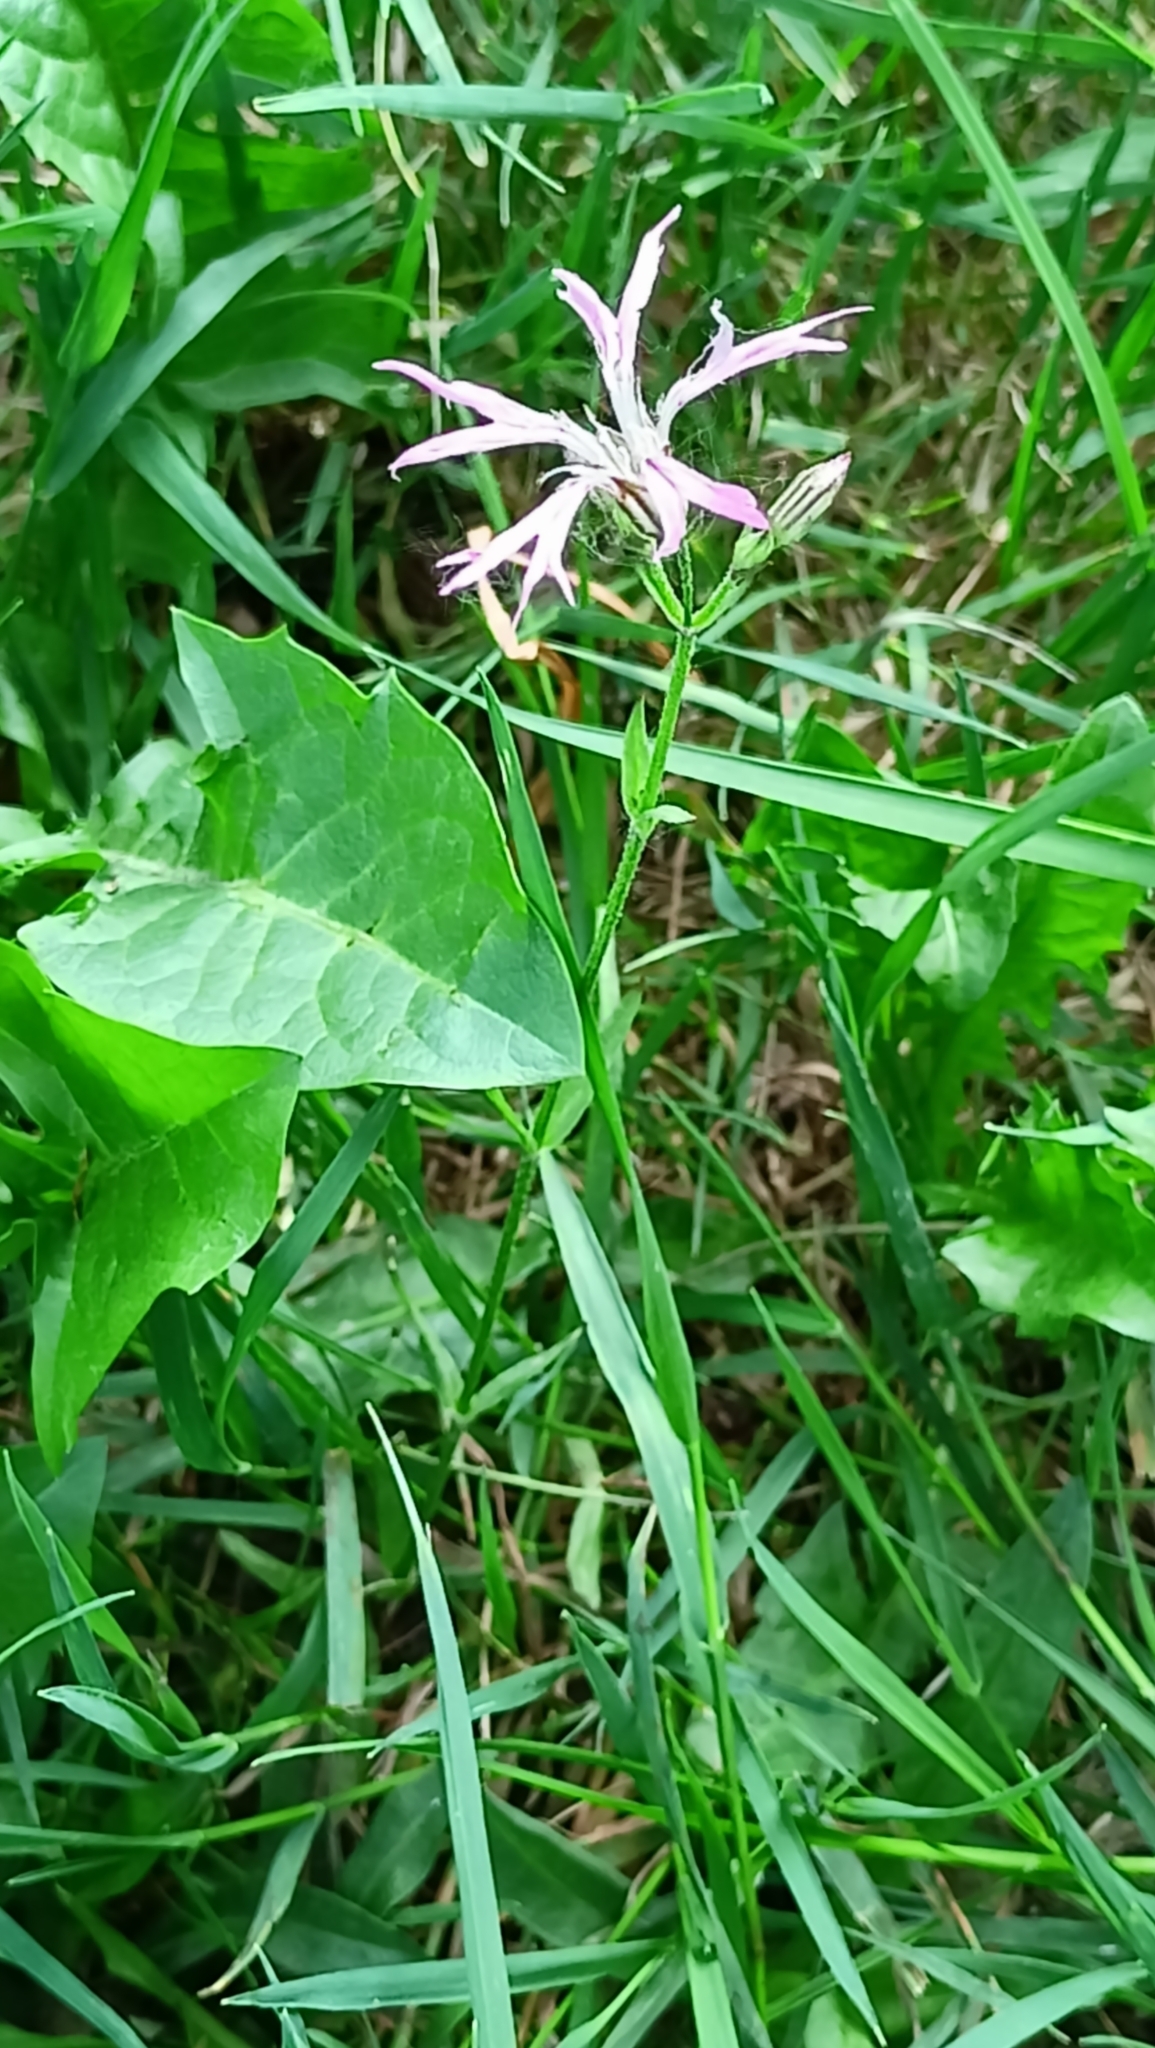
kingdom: Plantae
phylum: Tracheophyta
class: Magnoliopsida
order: Caryophyllales
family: Caryophyllaceae
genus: Silene
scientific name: Silene flos-cuculi
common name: Ragged-robin
